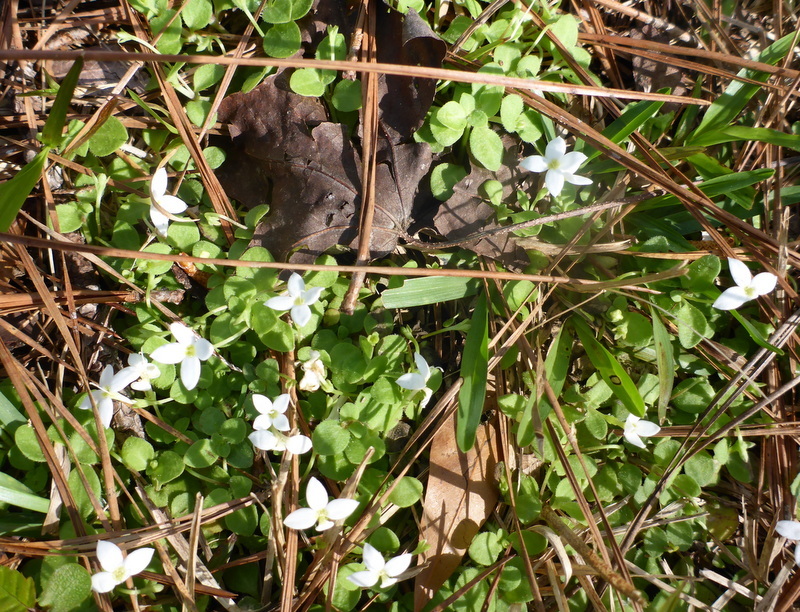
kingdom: Plantae
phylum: Tracheophyta
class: Magnoliopsida
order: Gentianales
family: Rubiaceae
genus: Houstonia
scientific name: Houstonia procumbens
